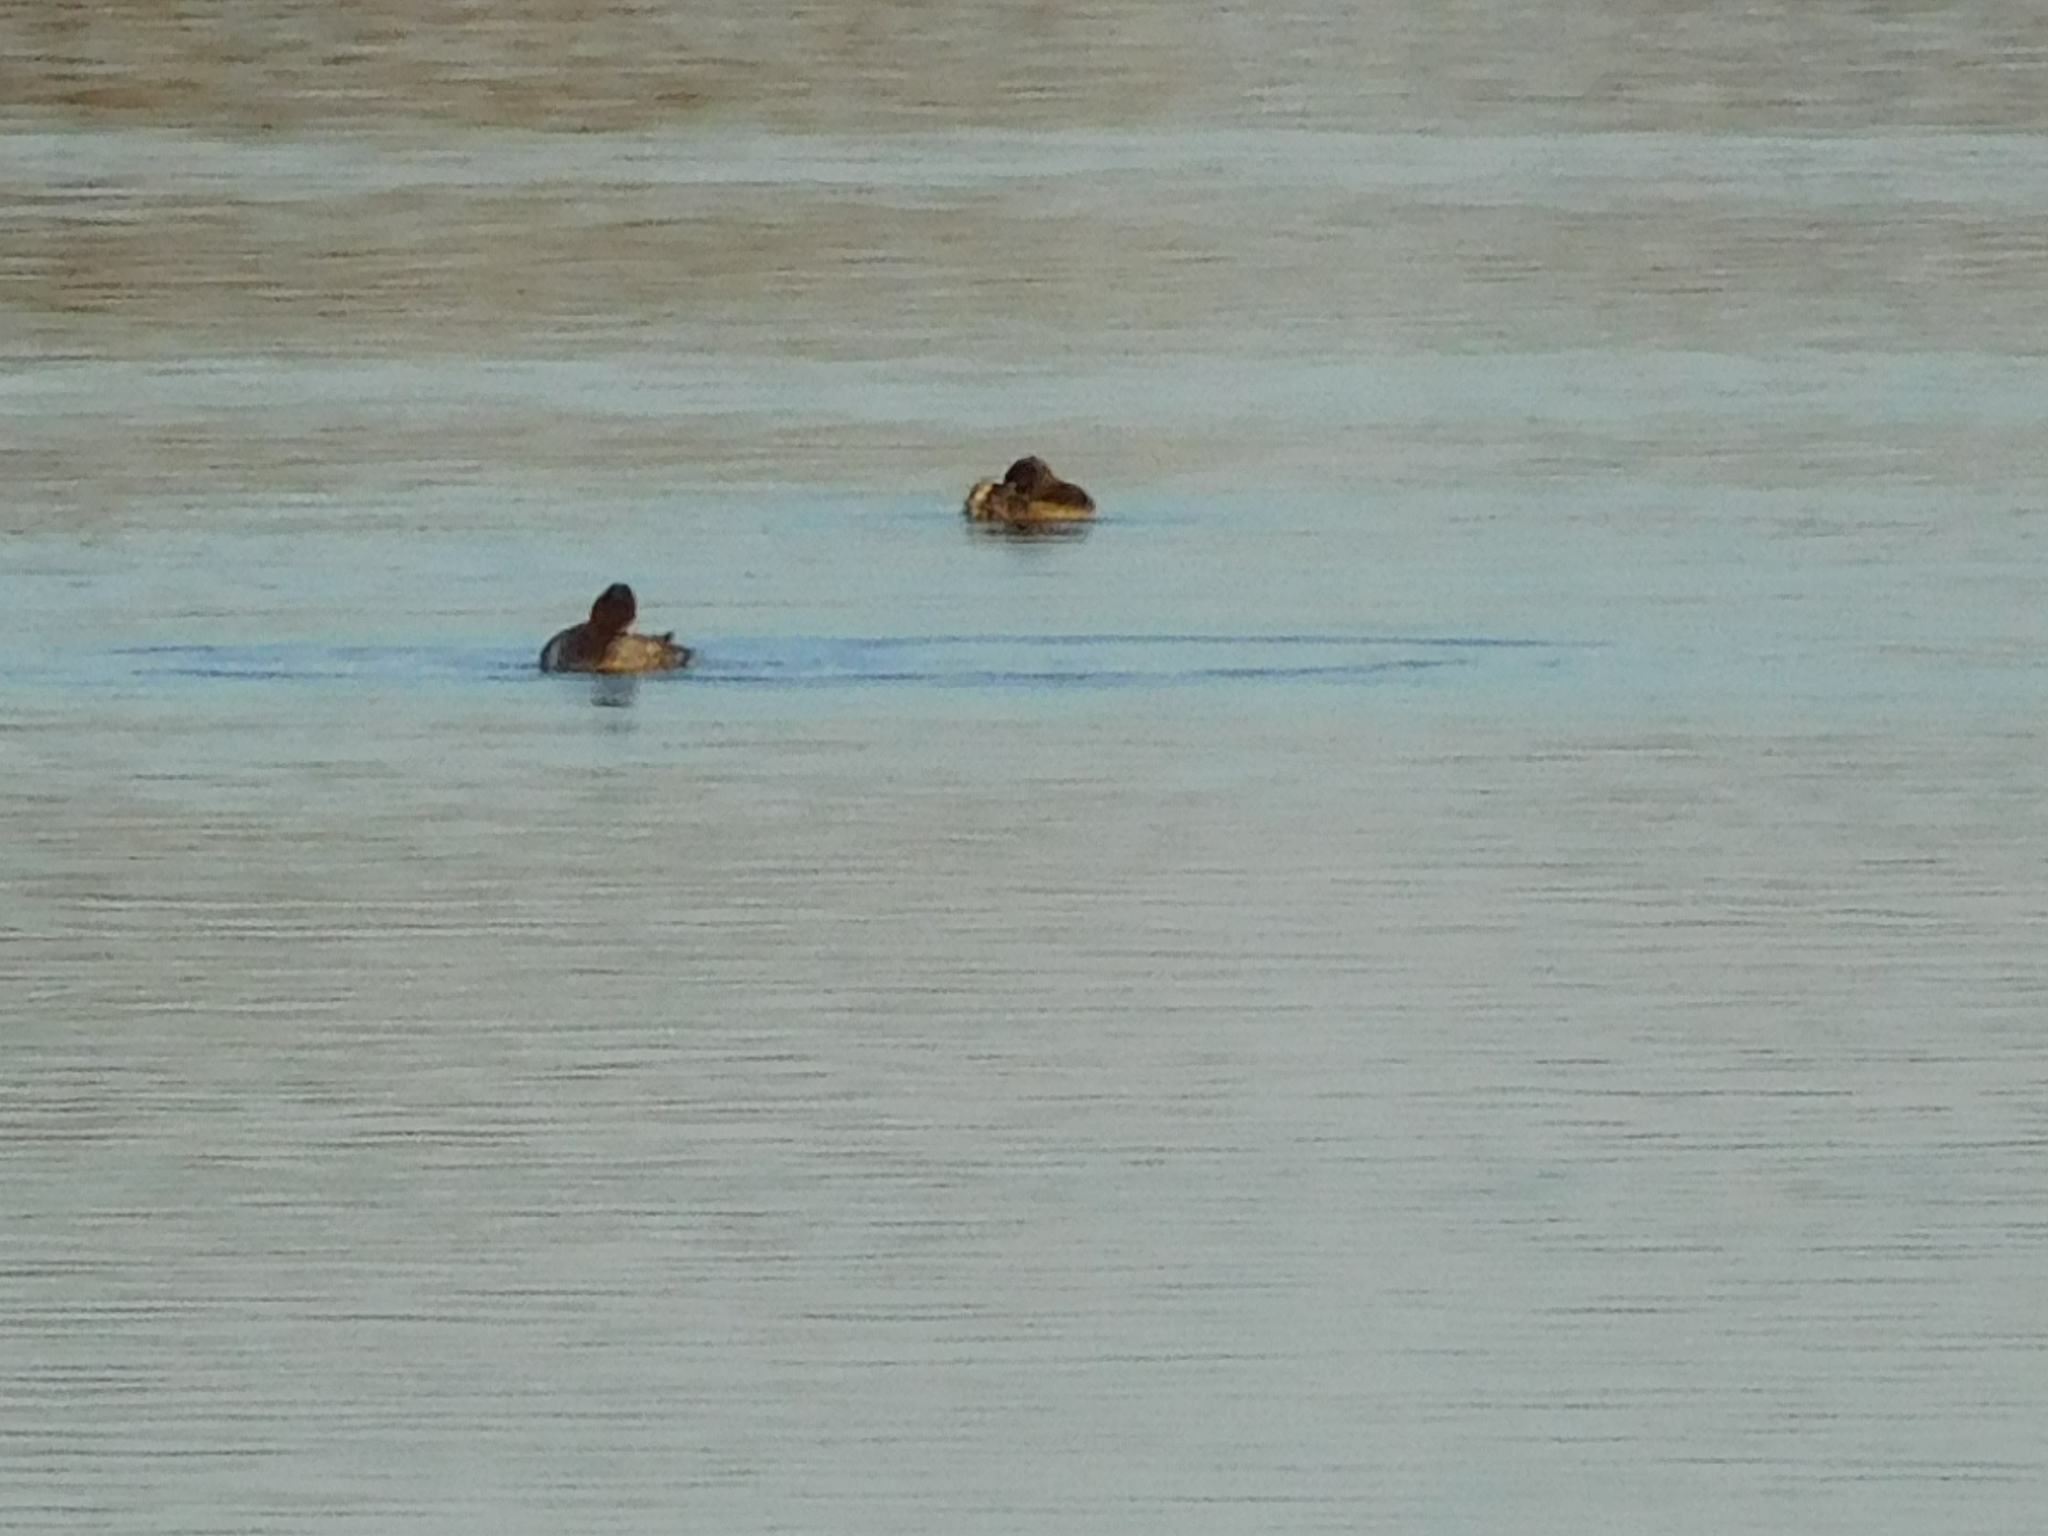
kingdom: Animalia
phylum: Chordata
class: Aves
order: Anseriformes
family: Anatidae
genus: Aythya
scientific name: Aythya fuligula
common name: Tufted duck
